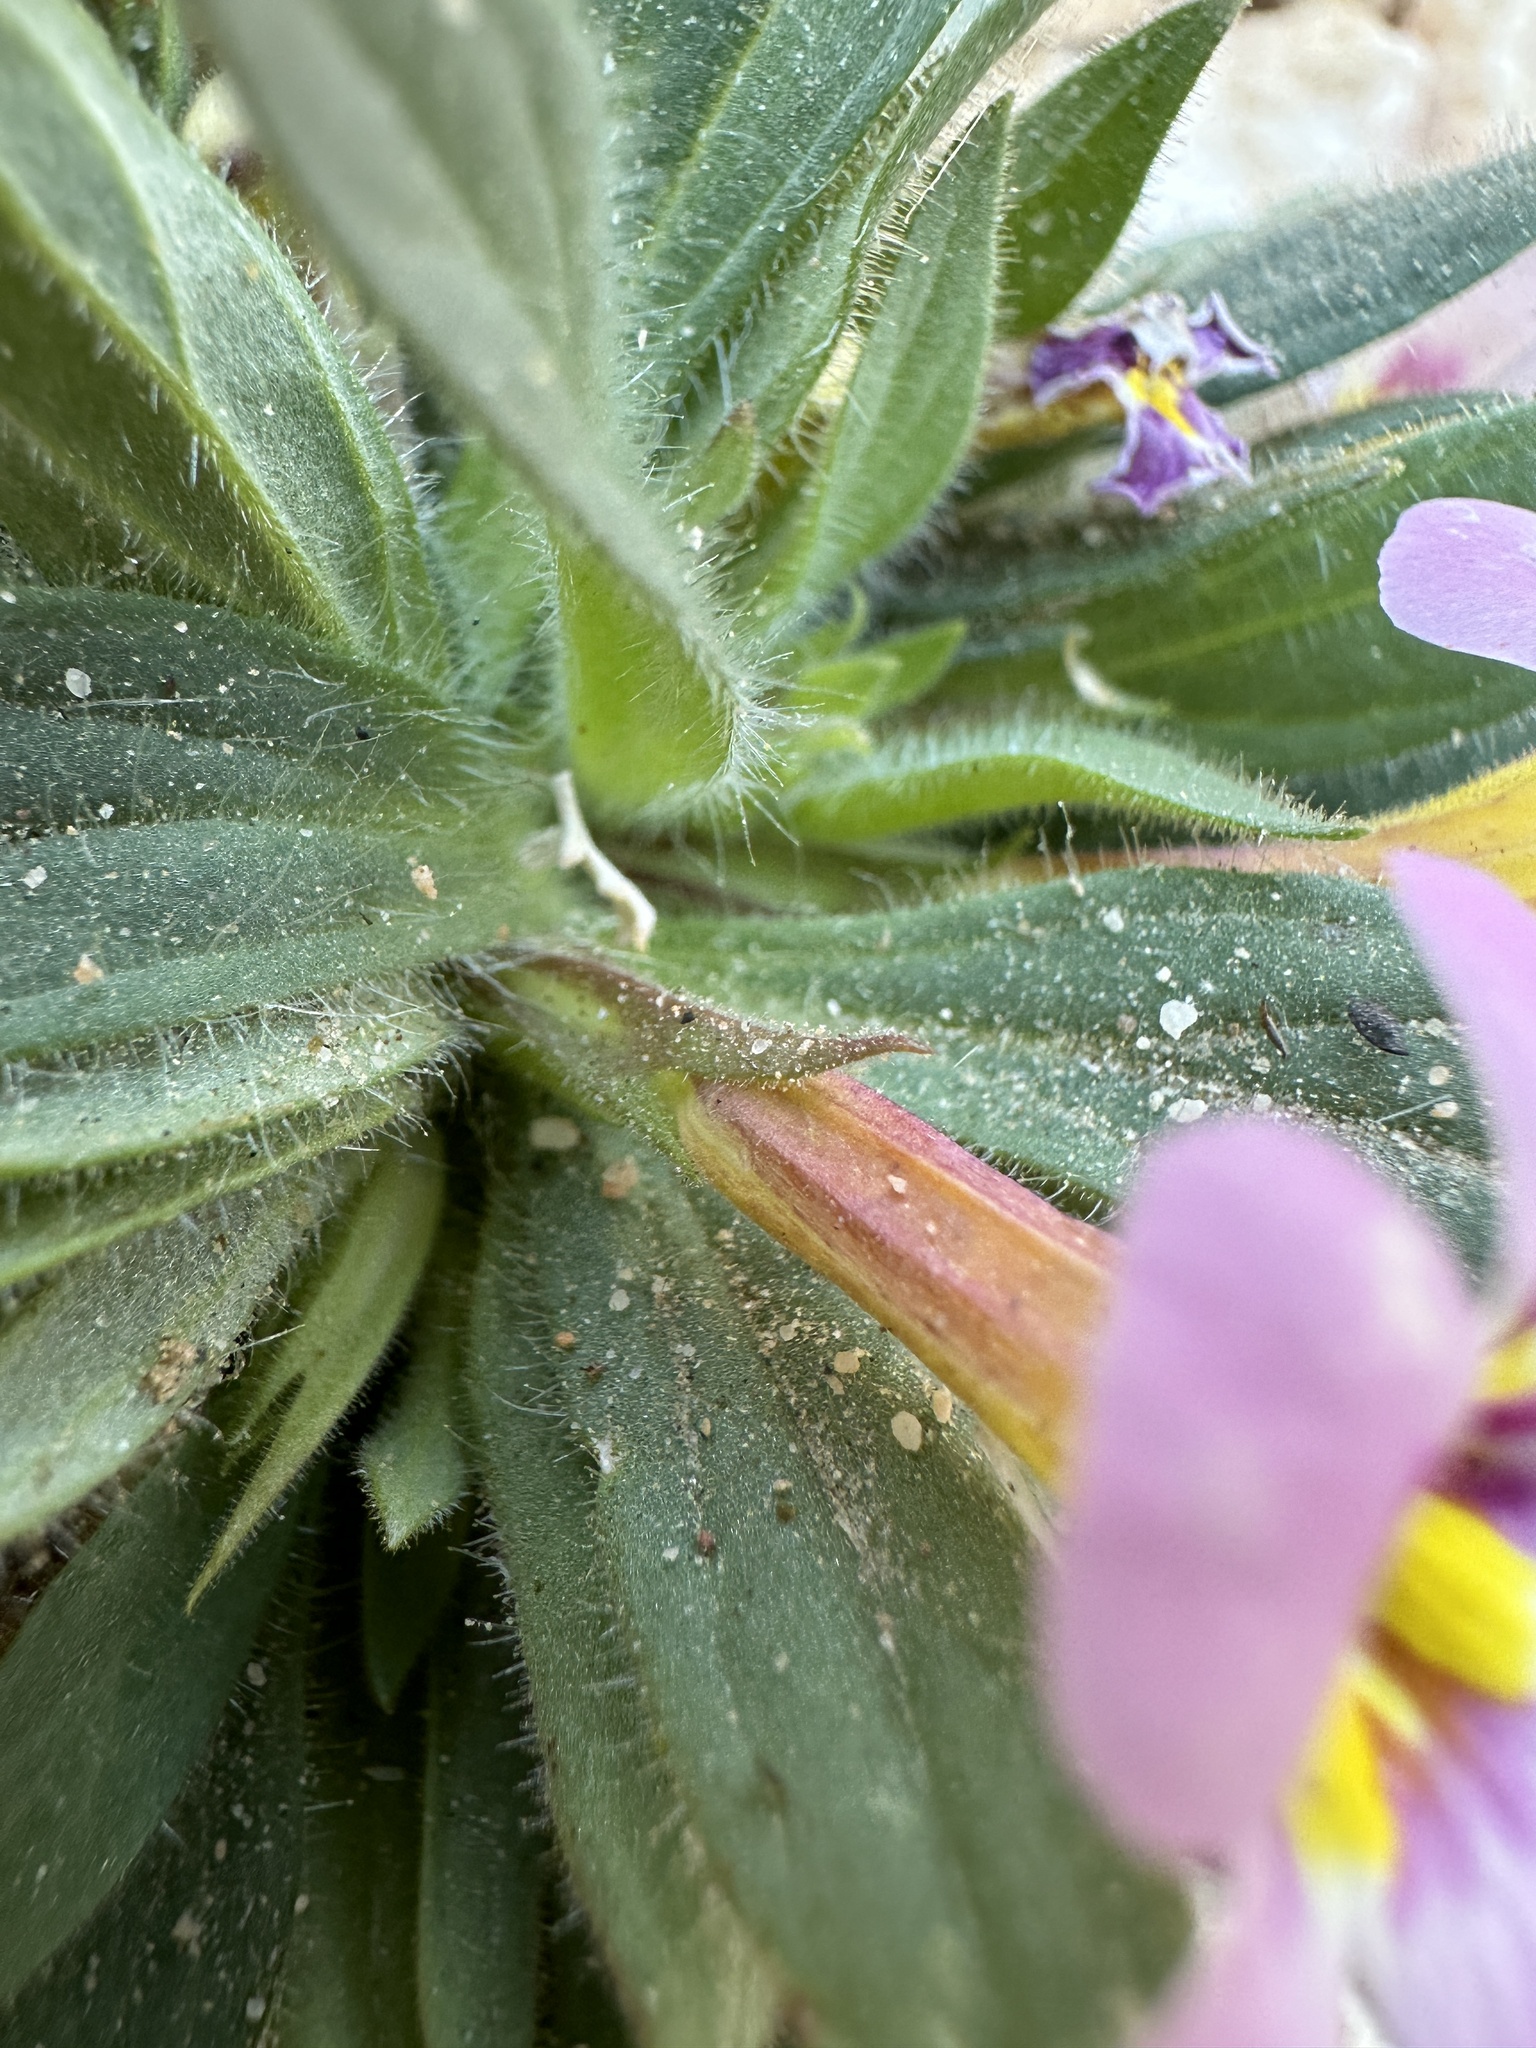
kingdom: Plantae
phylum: Tracheophyta
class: Magnoliopsida
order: Lamiales
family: Phrymaceae
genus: Diplacus
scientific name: Diplacus rupicola
